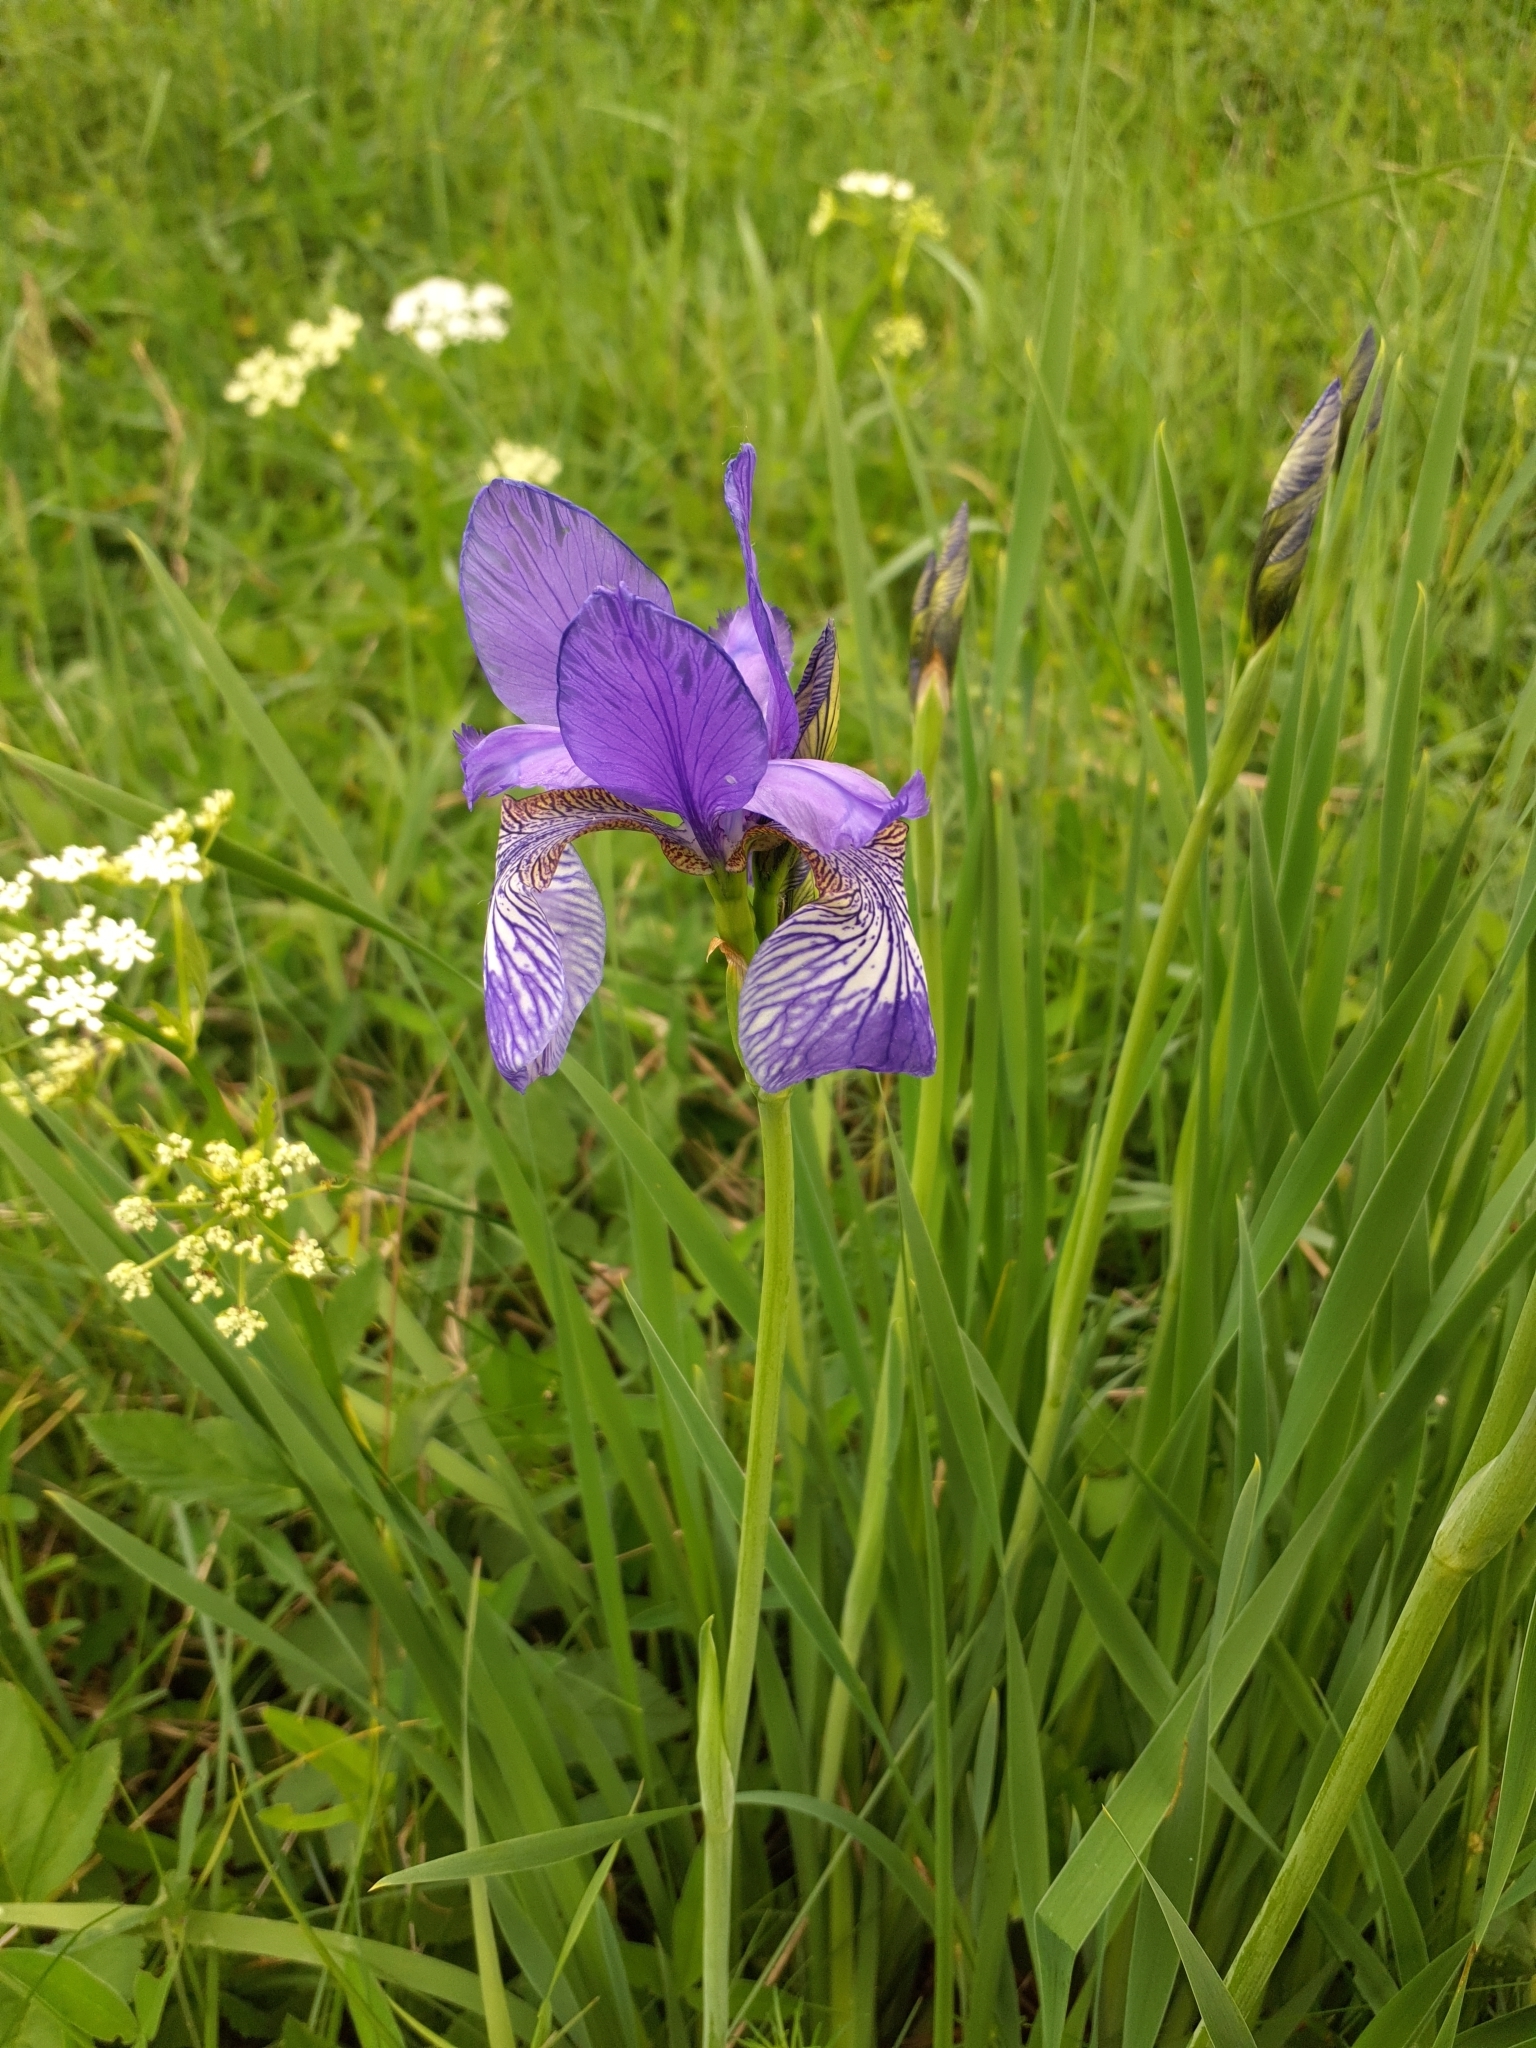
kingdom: Plantae
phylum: Tracheophyta
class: Liliopsida
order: Asparagales
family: Iridaceae
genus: Iris
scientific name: Iris sibirica
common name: Siberian iris
